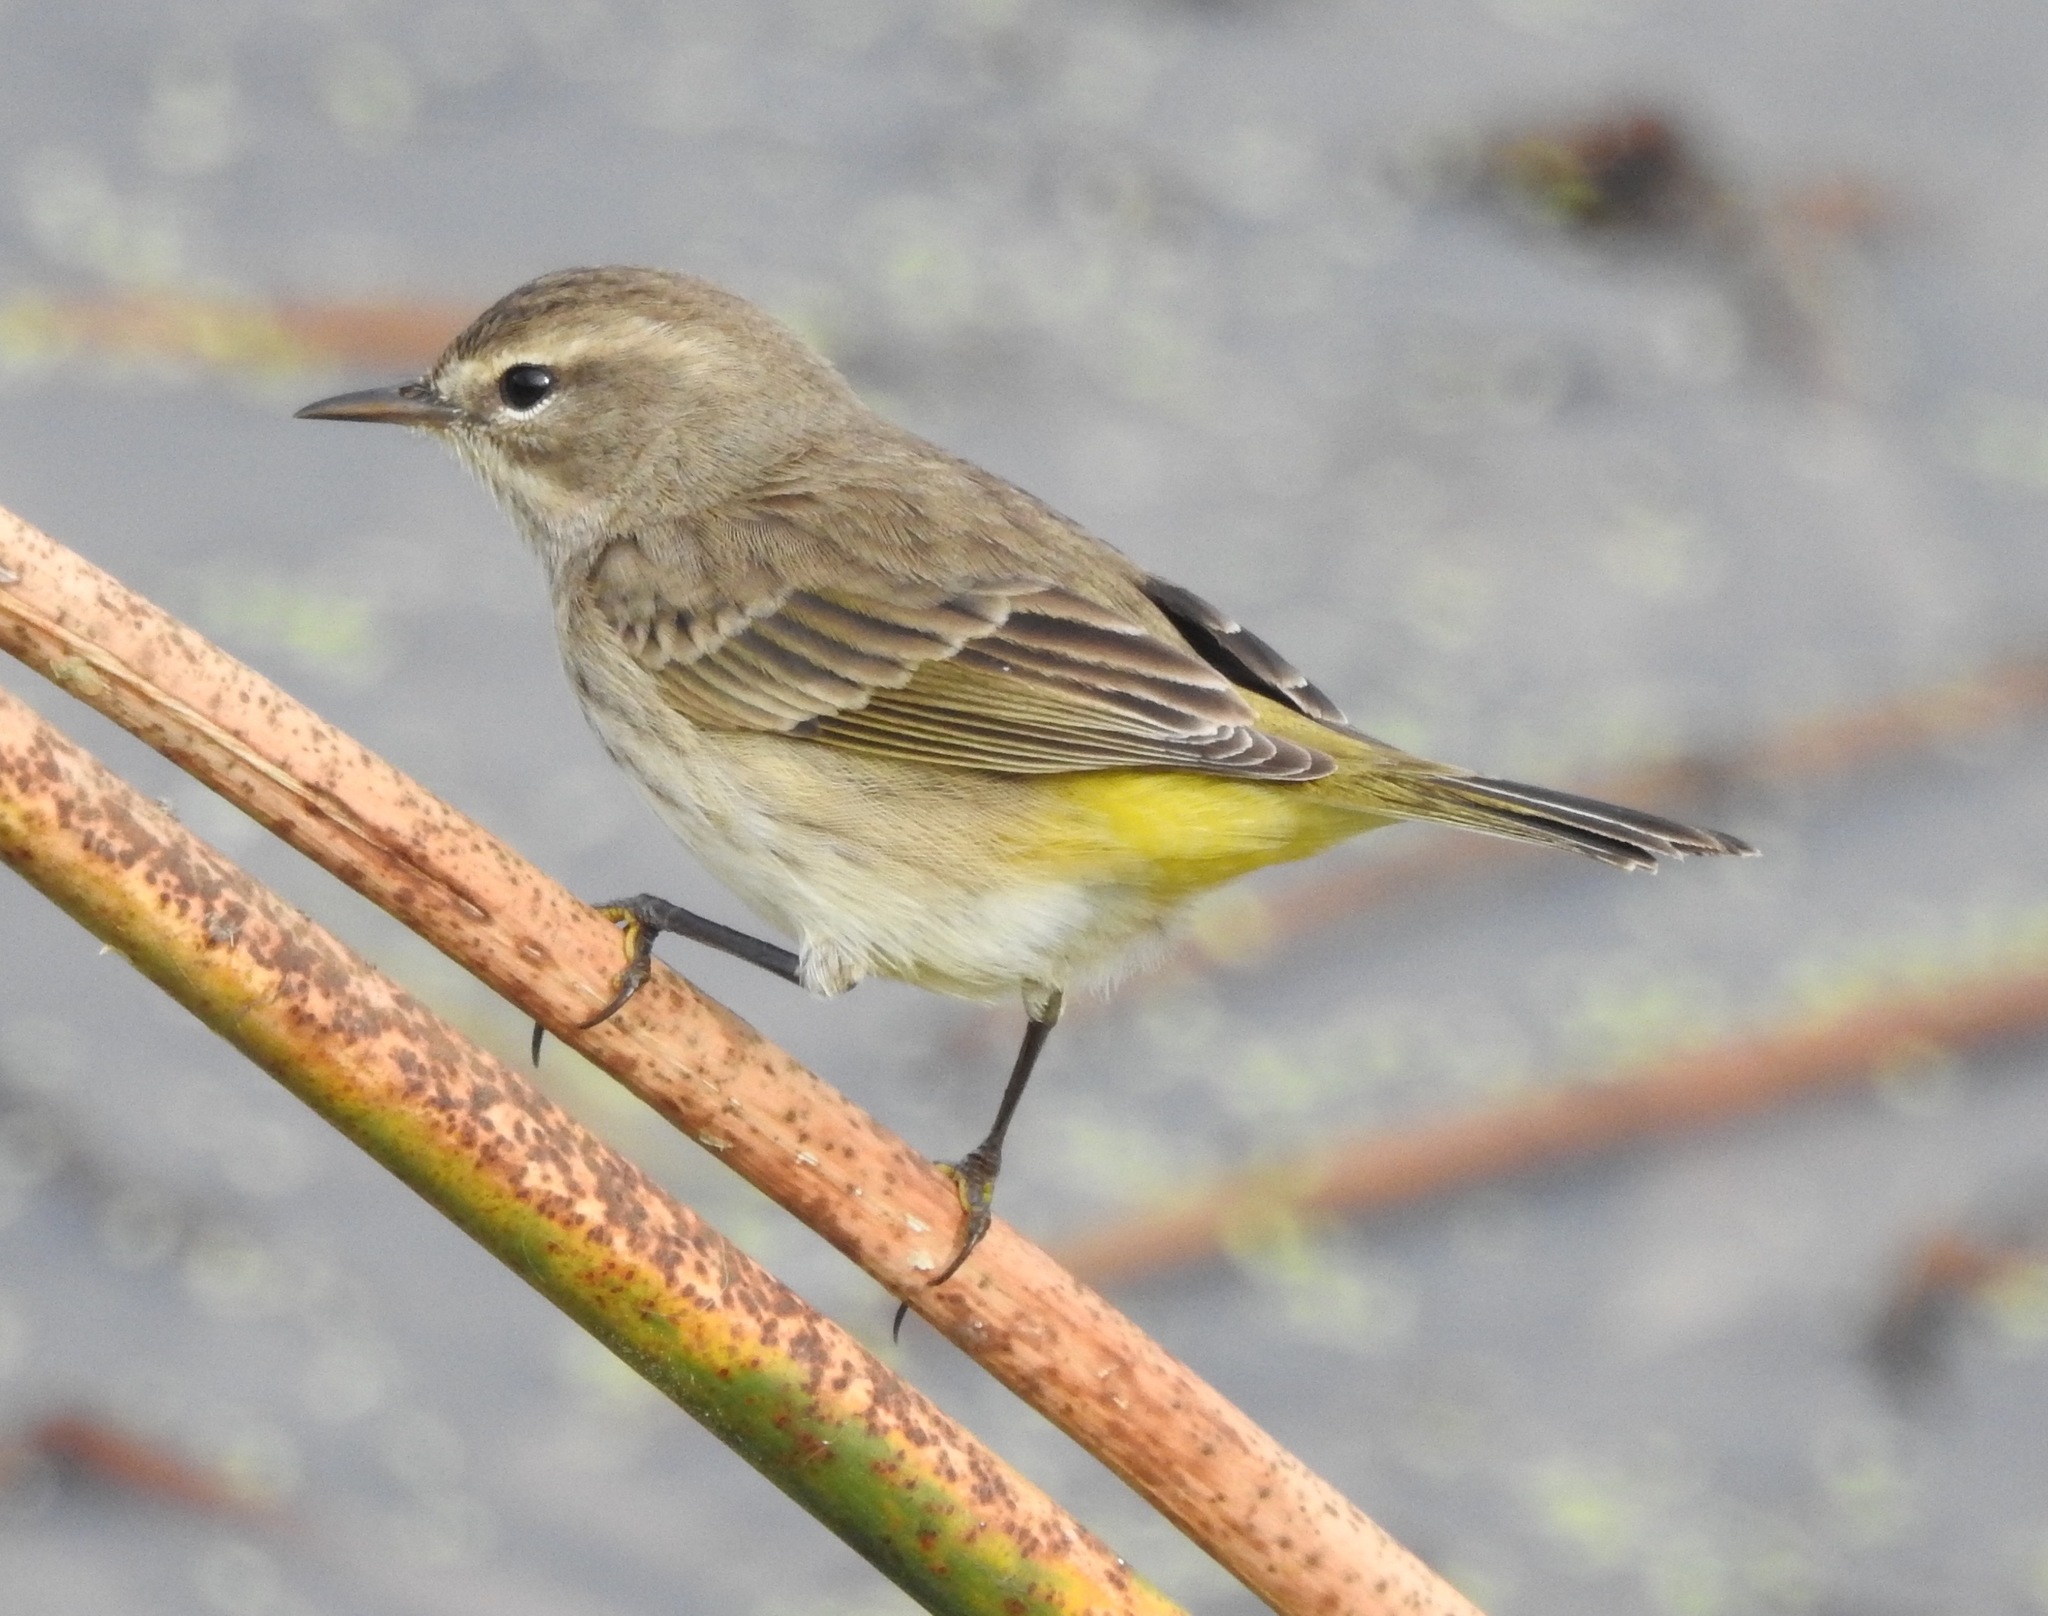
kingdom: Animalia
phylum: Chordata
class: Aves
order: Passeriformes
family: Parulidae
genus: Setophaga
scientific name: Setophaga palmarum
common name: Palm warbler
